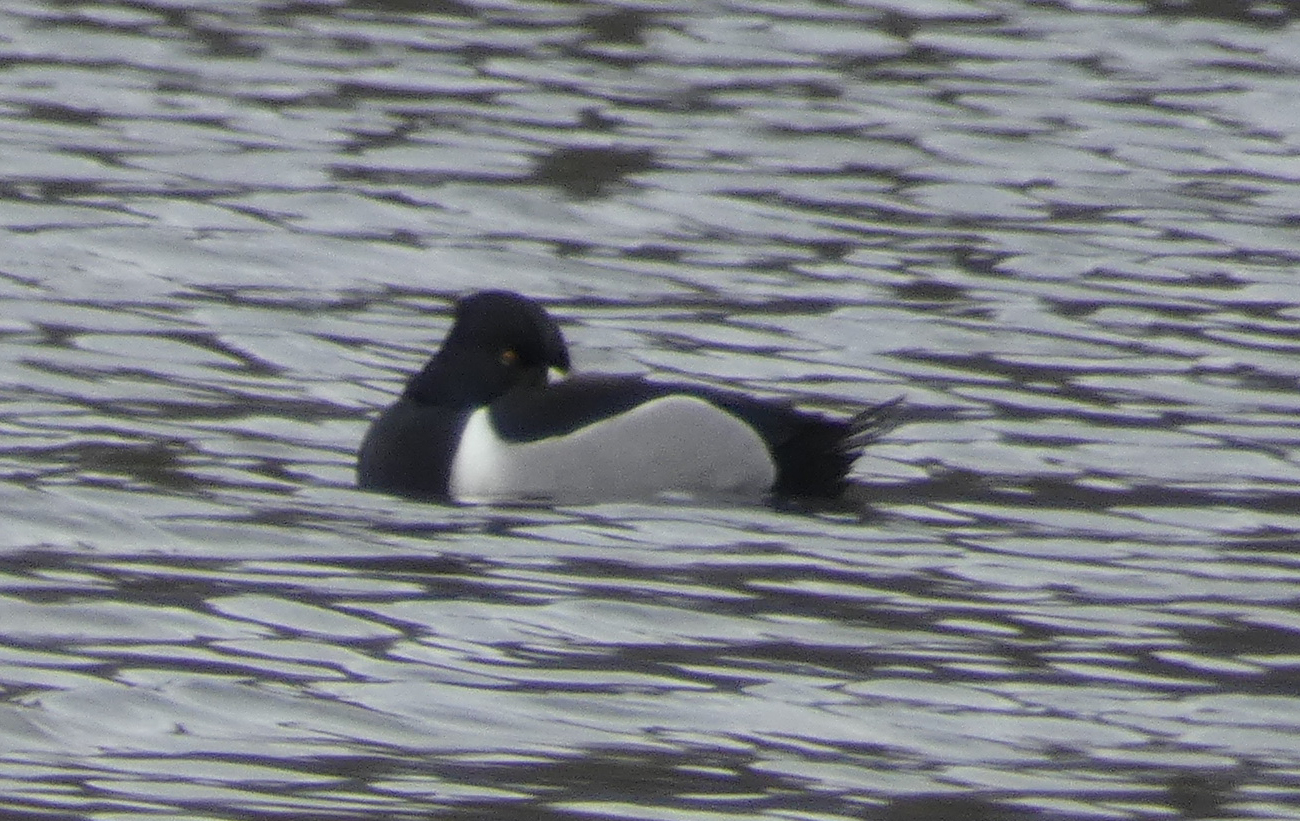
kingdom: Animalia
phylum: Chordata
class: Aves
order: Anseriformes
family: Anatidae
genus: Aythya
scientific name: Aythya collaris
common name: Ring-necked duck
